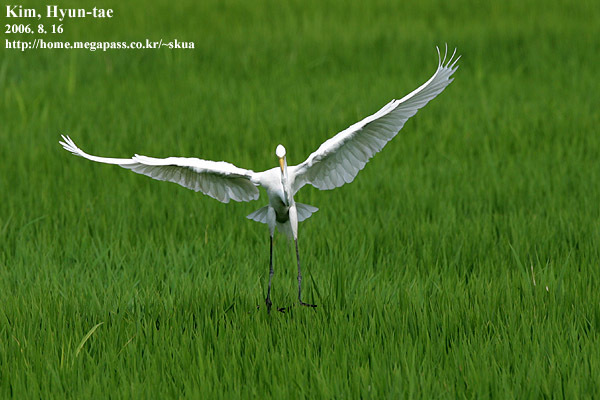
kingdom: Animalia
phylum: Chordata
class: Aves
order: Pelecaniformes
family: Ardeidae
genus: Ardea
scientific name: Ardea modesta
